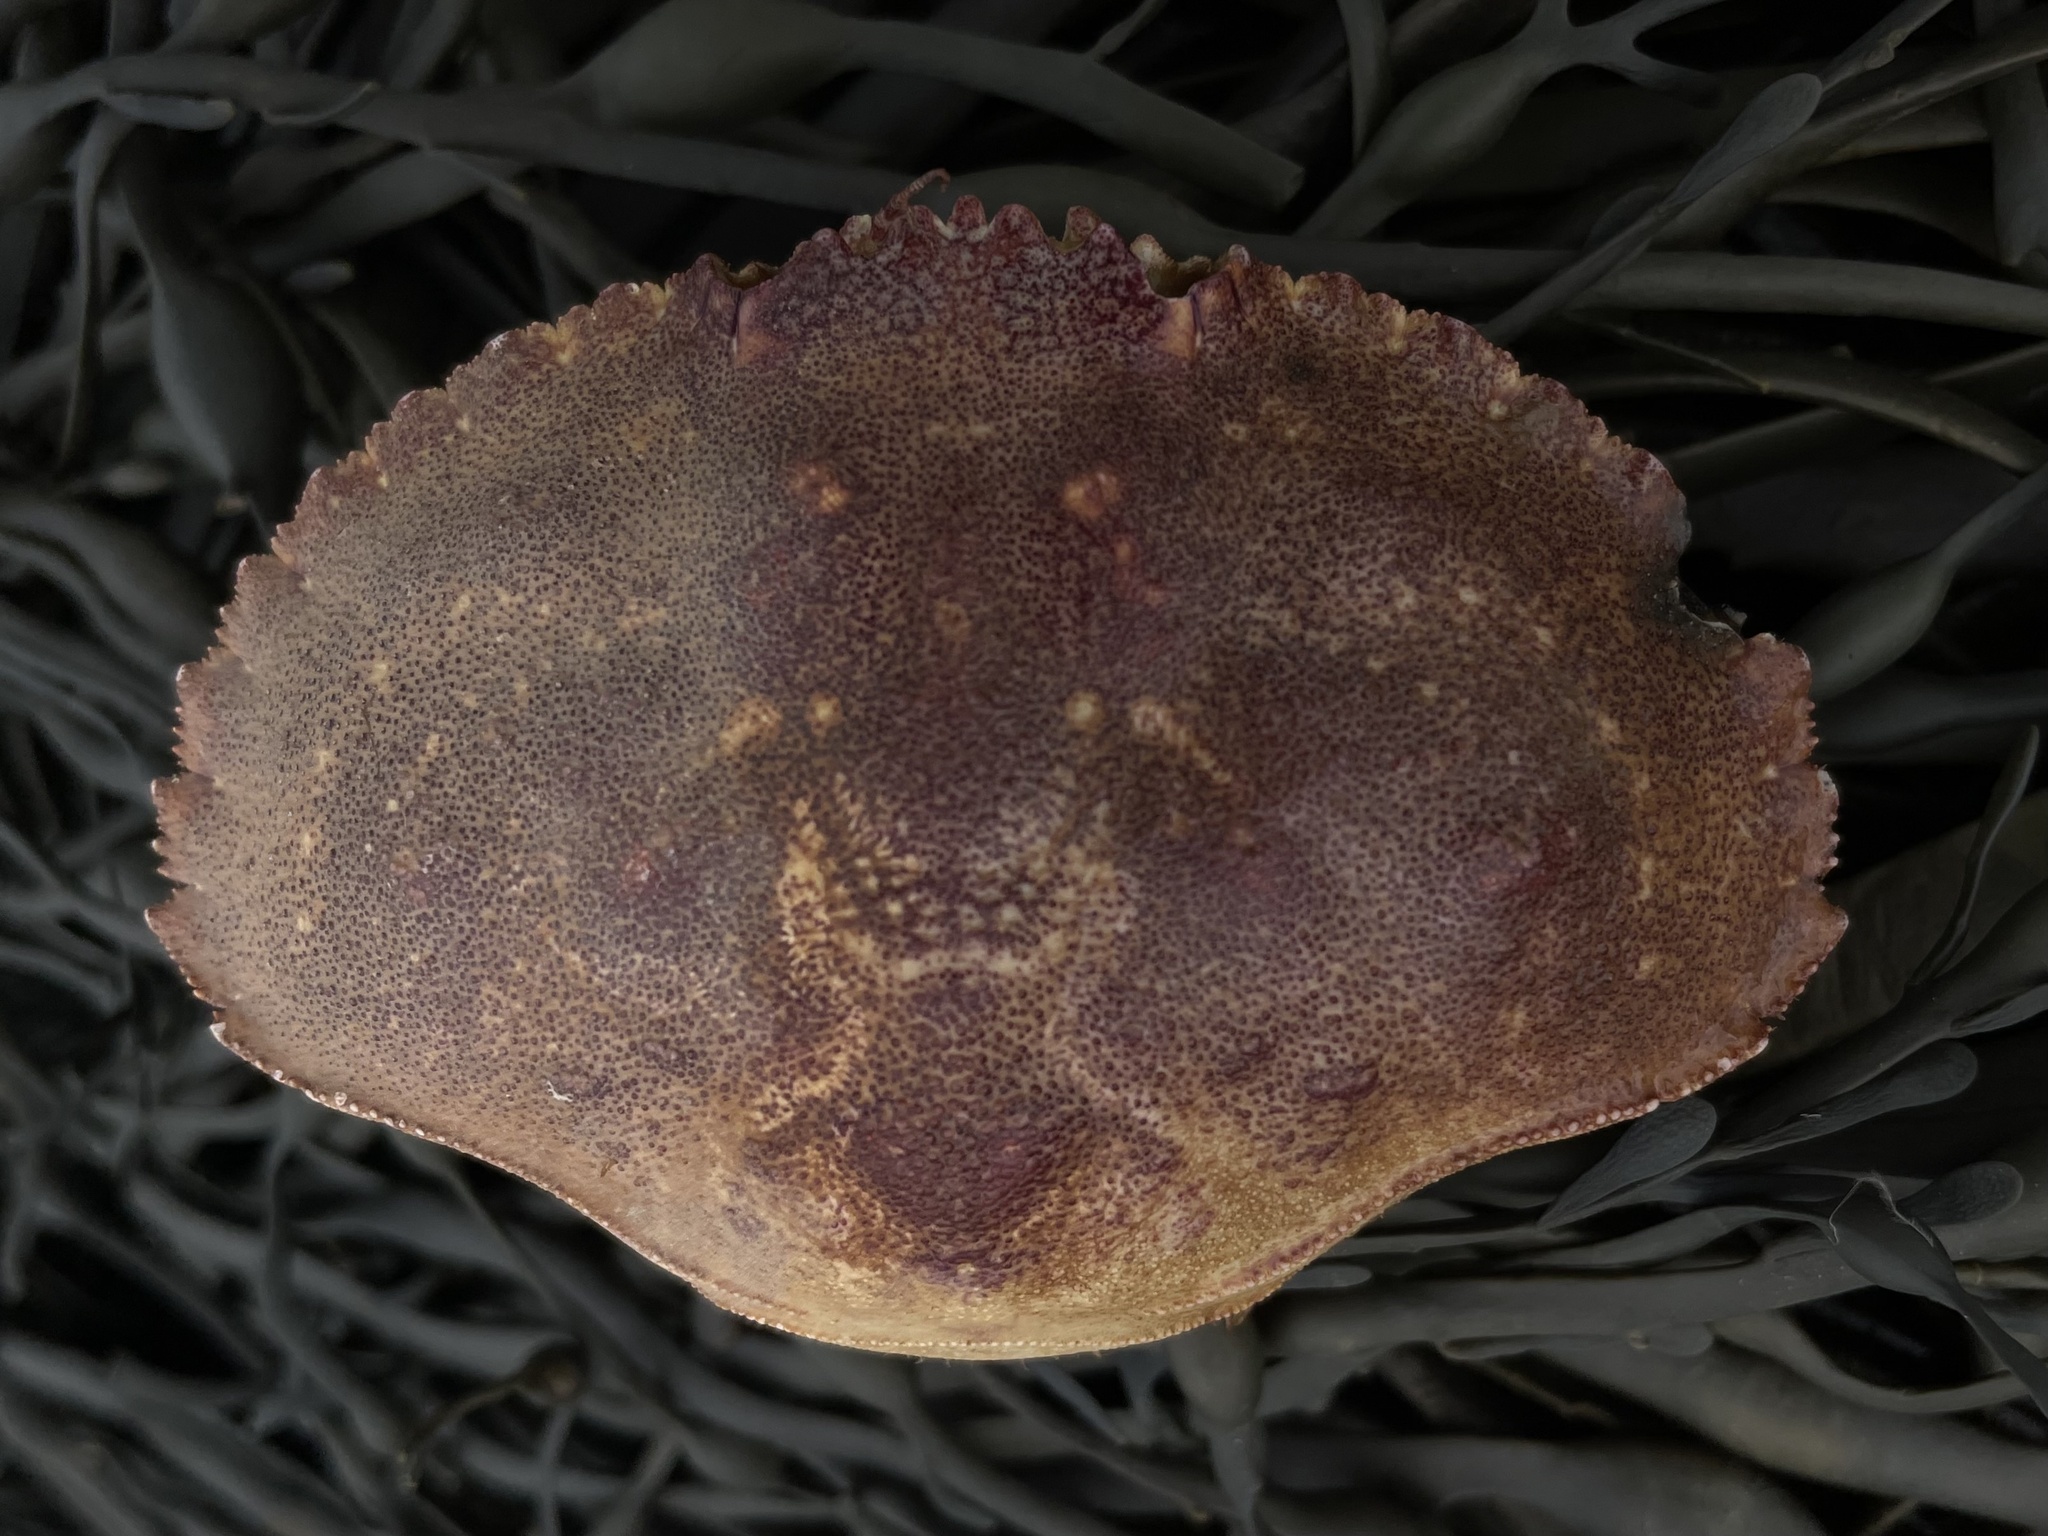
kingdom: Animalia
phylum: Arthropoda
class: Malacostraca
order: Decapoda
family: Cancridae
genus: Cancer
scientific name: Cancer borealis
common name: Jonah crab
